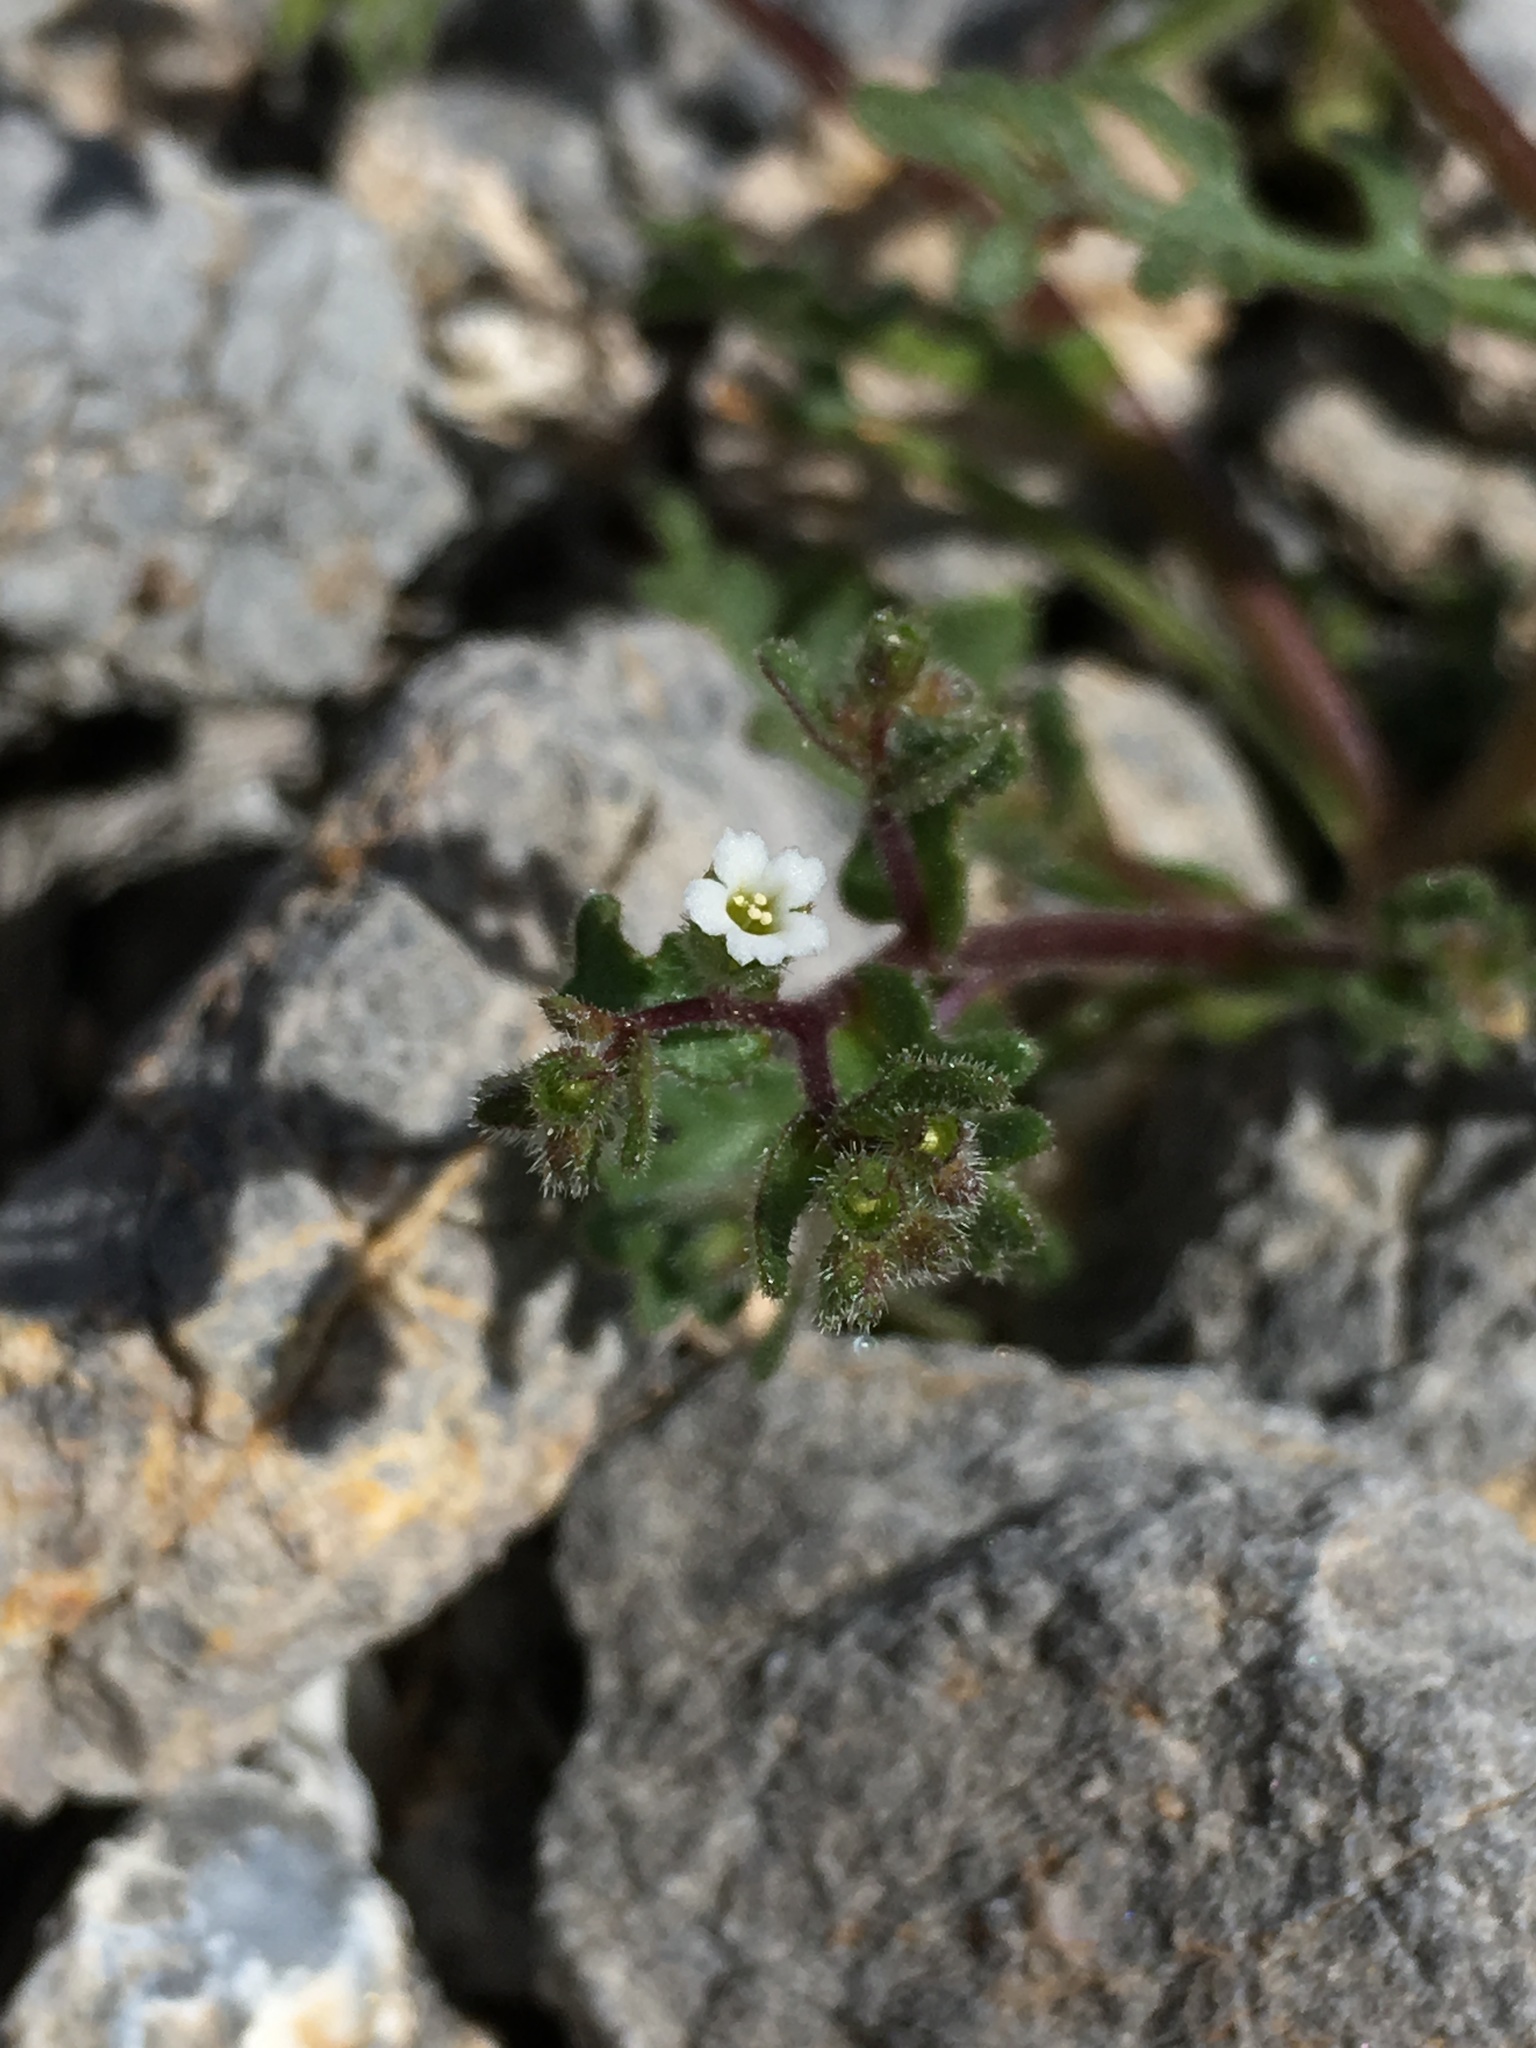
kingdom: Plantae
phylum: Tracheophyta
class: Magnoliopsida
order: Boraginales
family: Hydrophyllaceae
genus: Eucrypta
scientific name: Eucrypta micrantha
